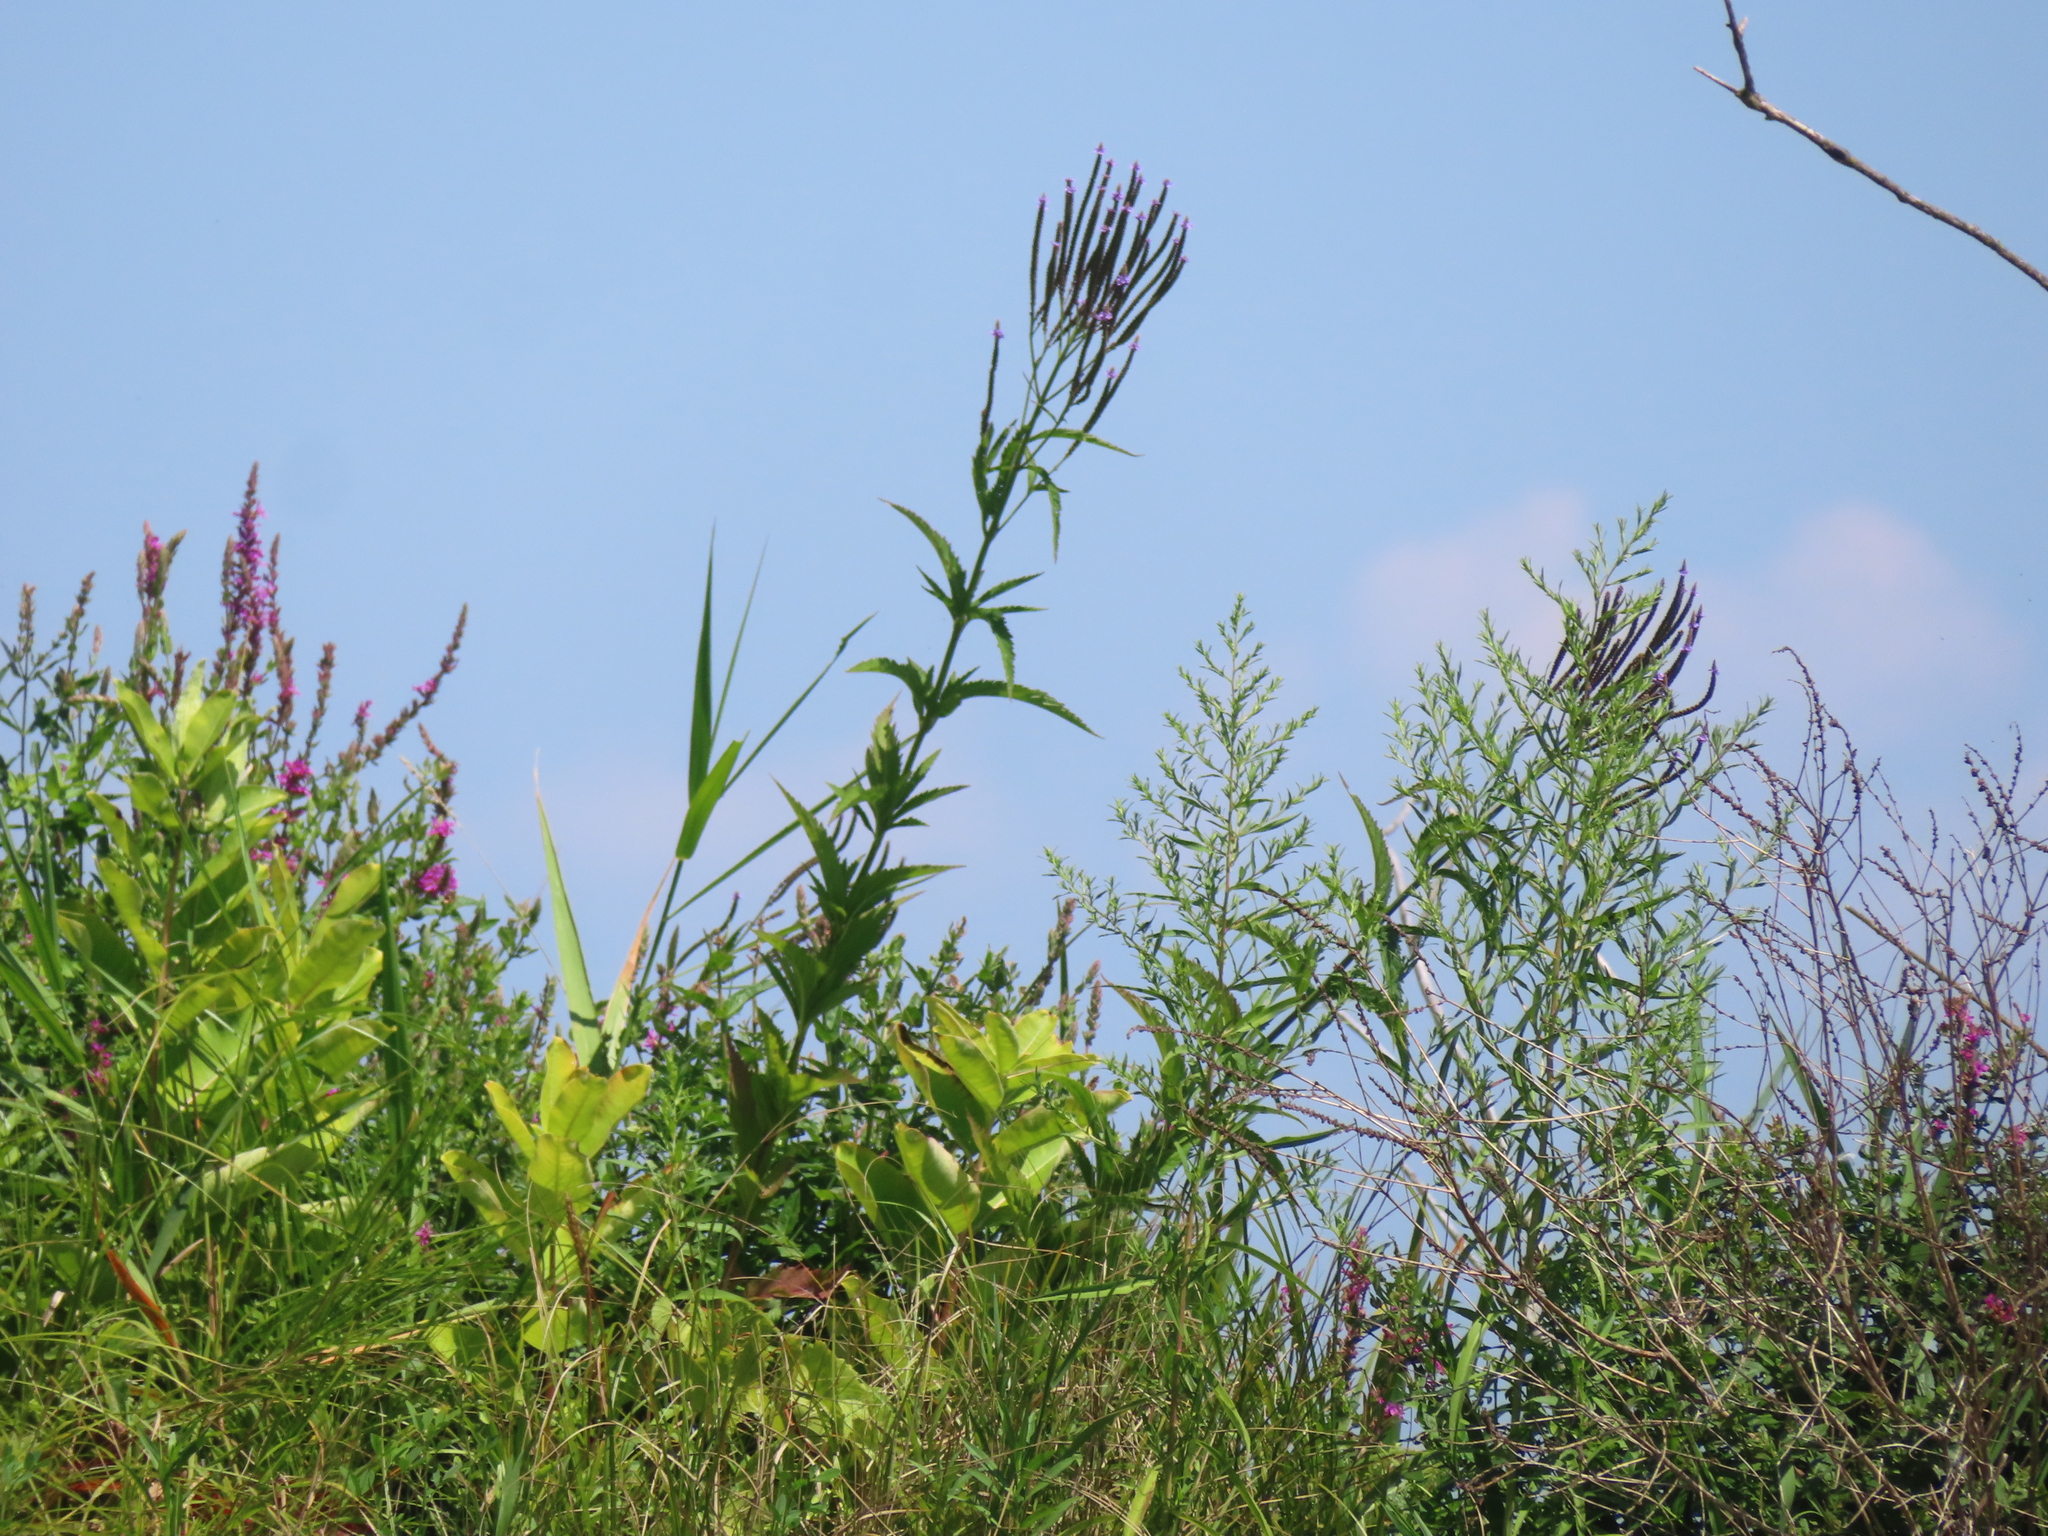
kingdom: Plantae
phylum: Tracheophyta
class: Magnoliopsida
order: Lamiales
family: Verbenaceae
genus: Verbena
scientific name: Verbena hastata
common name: American blue vervain
